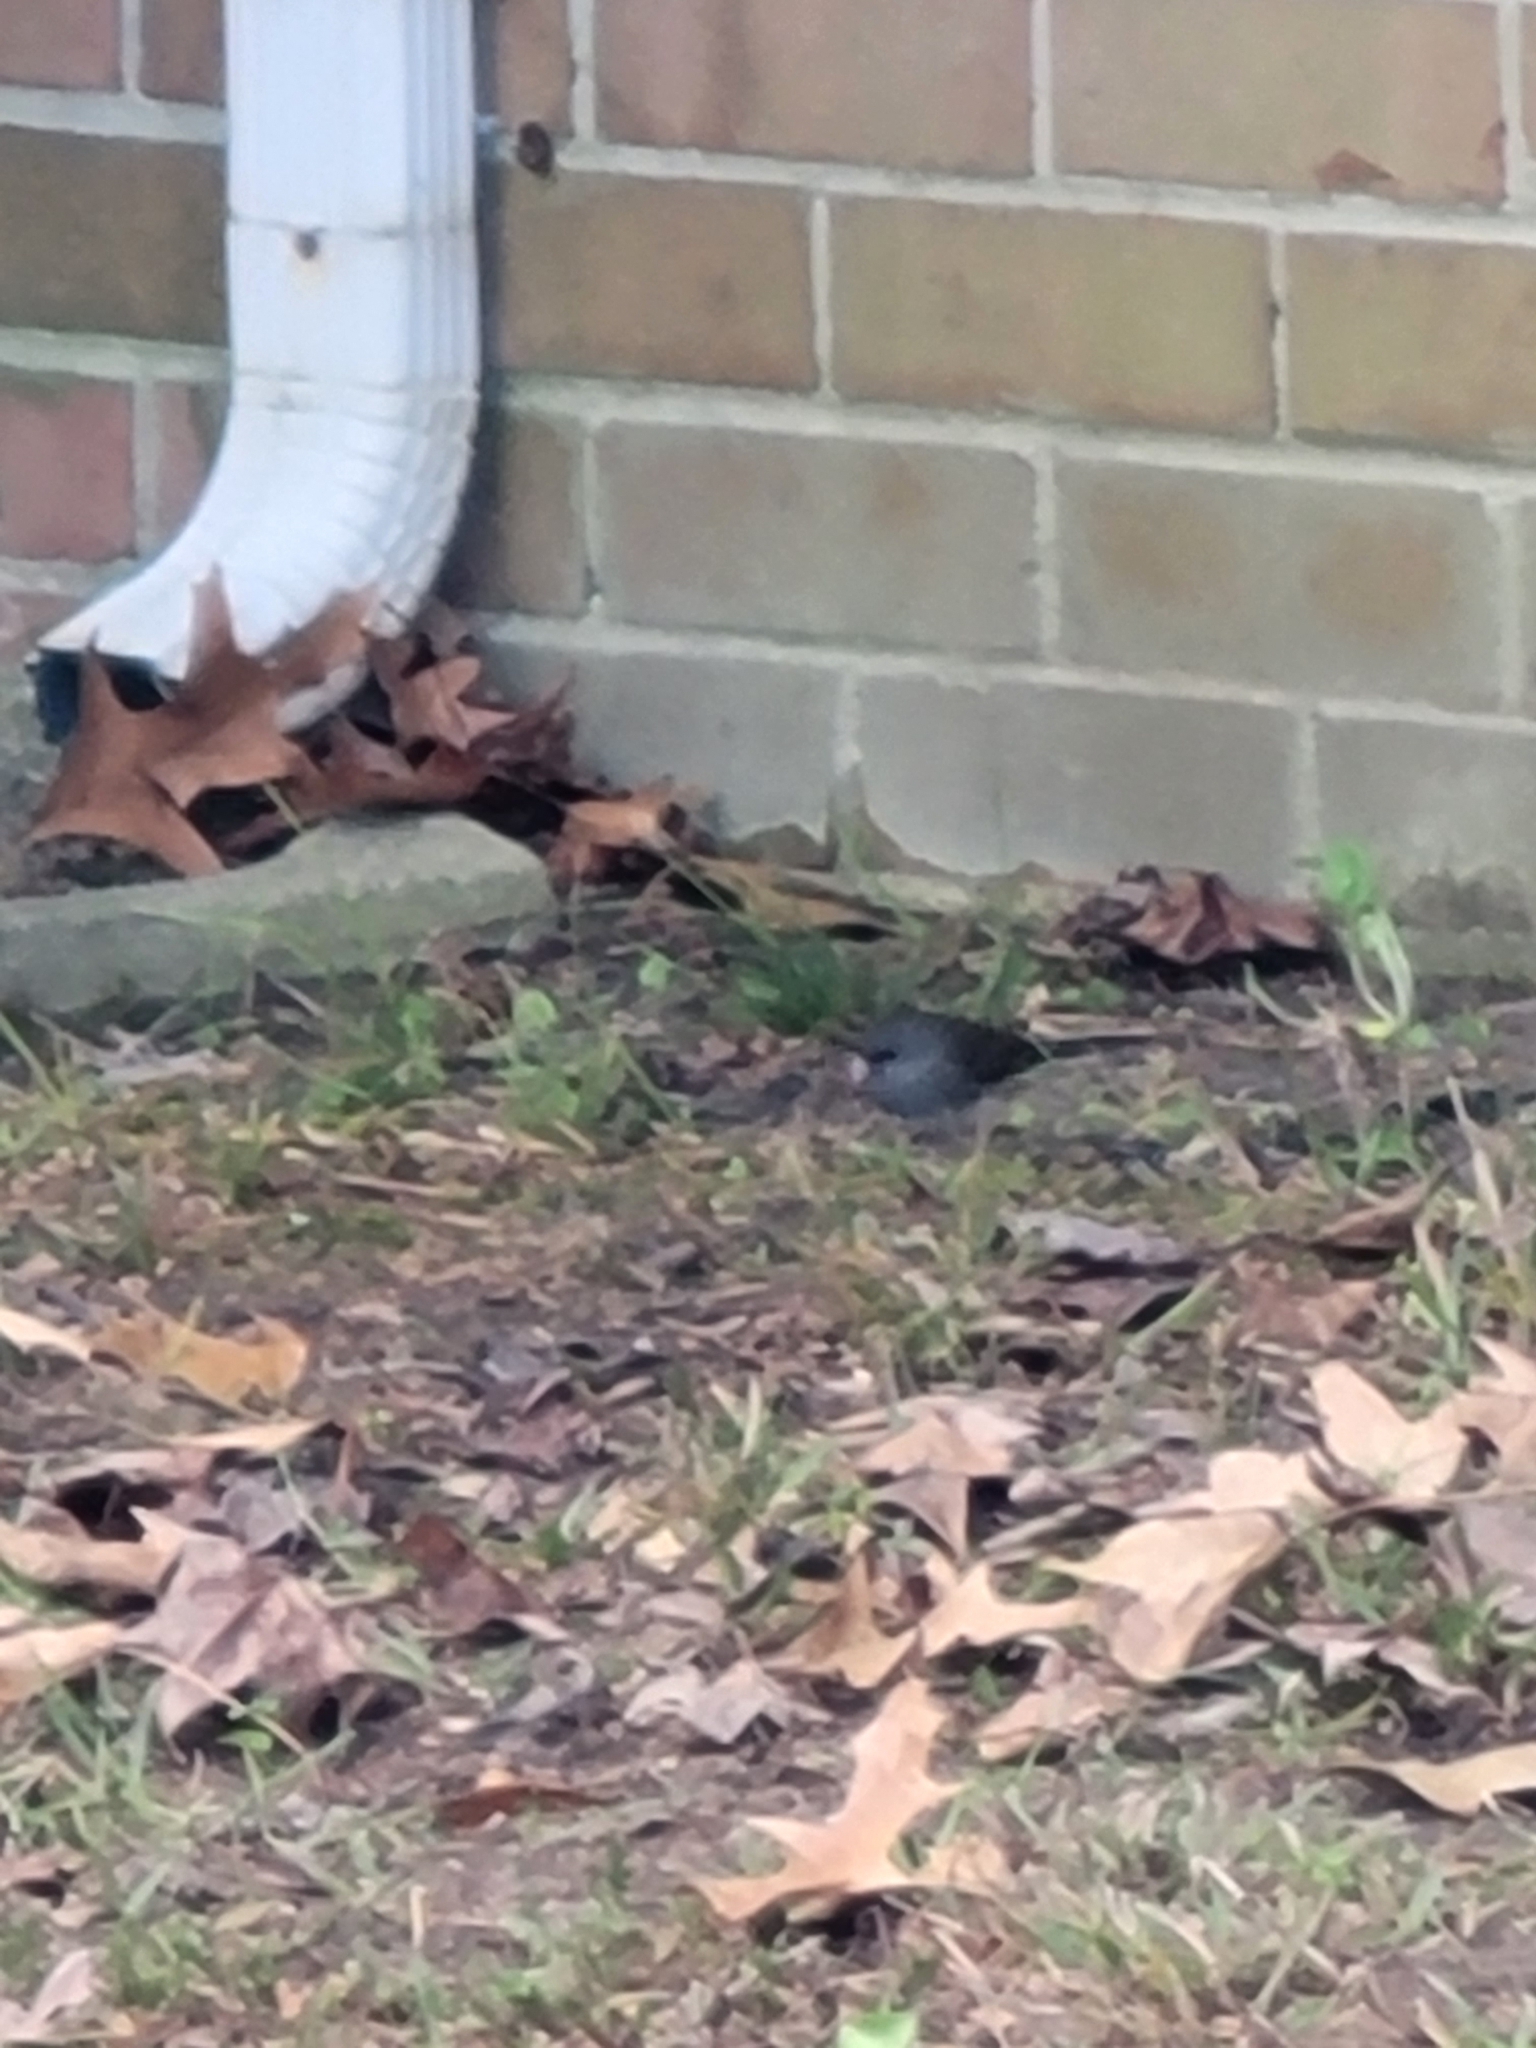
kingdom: Animalia
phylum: Chordata
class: Aves
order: Passeriformes
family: Passerellidae
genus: Junco
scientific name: Junco hyemalis
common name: Dark-eyed junco
